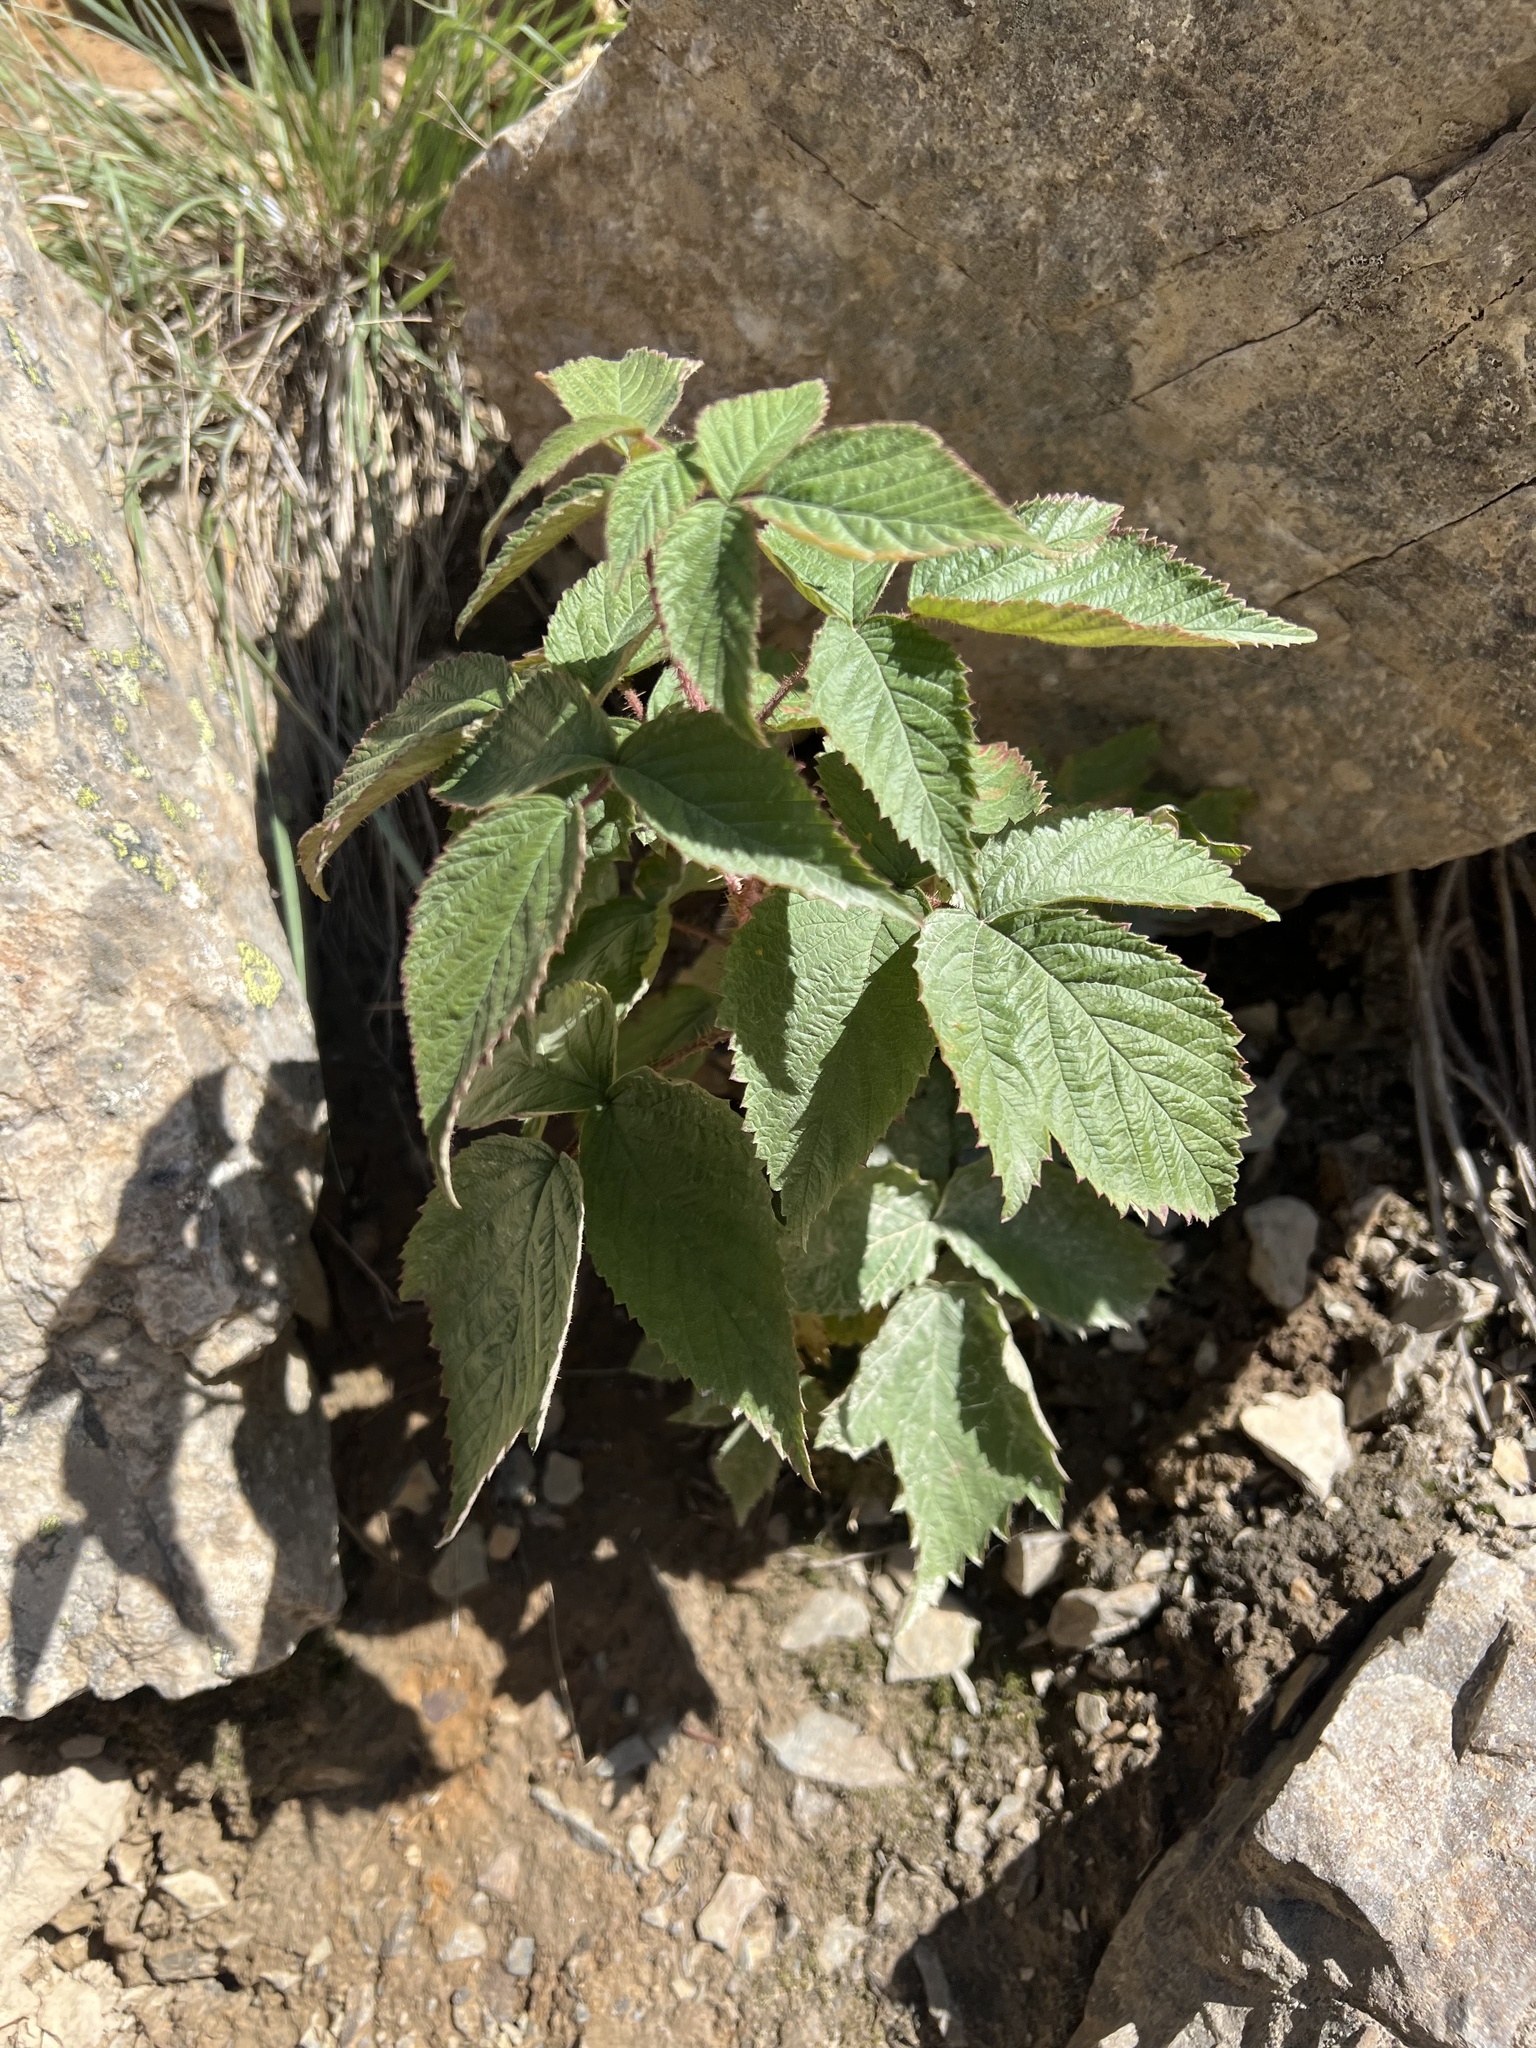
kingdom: Plantae
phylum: Tracheophyta
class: Magnoliopsida
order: Rosales
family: Rosaceae
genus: Rubus
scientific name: Rubus idaeus
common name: Raspberry
